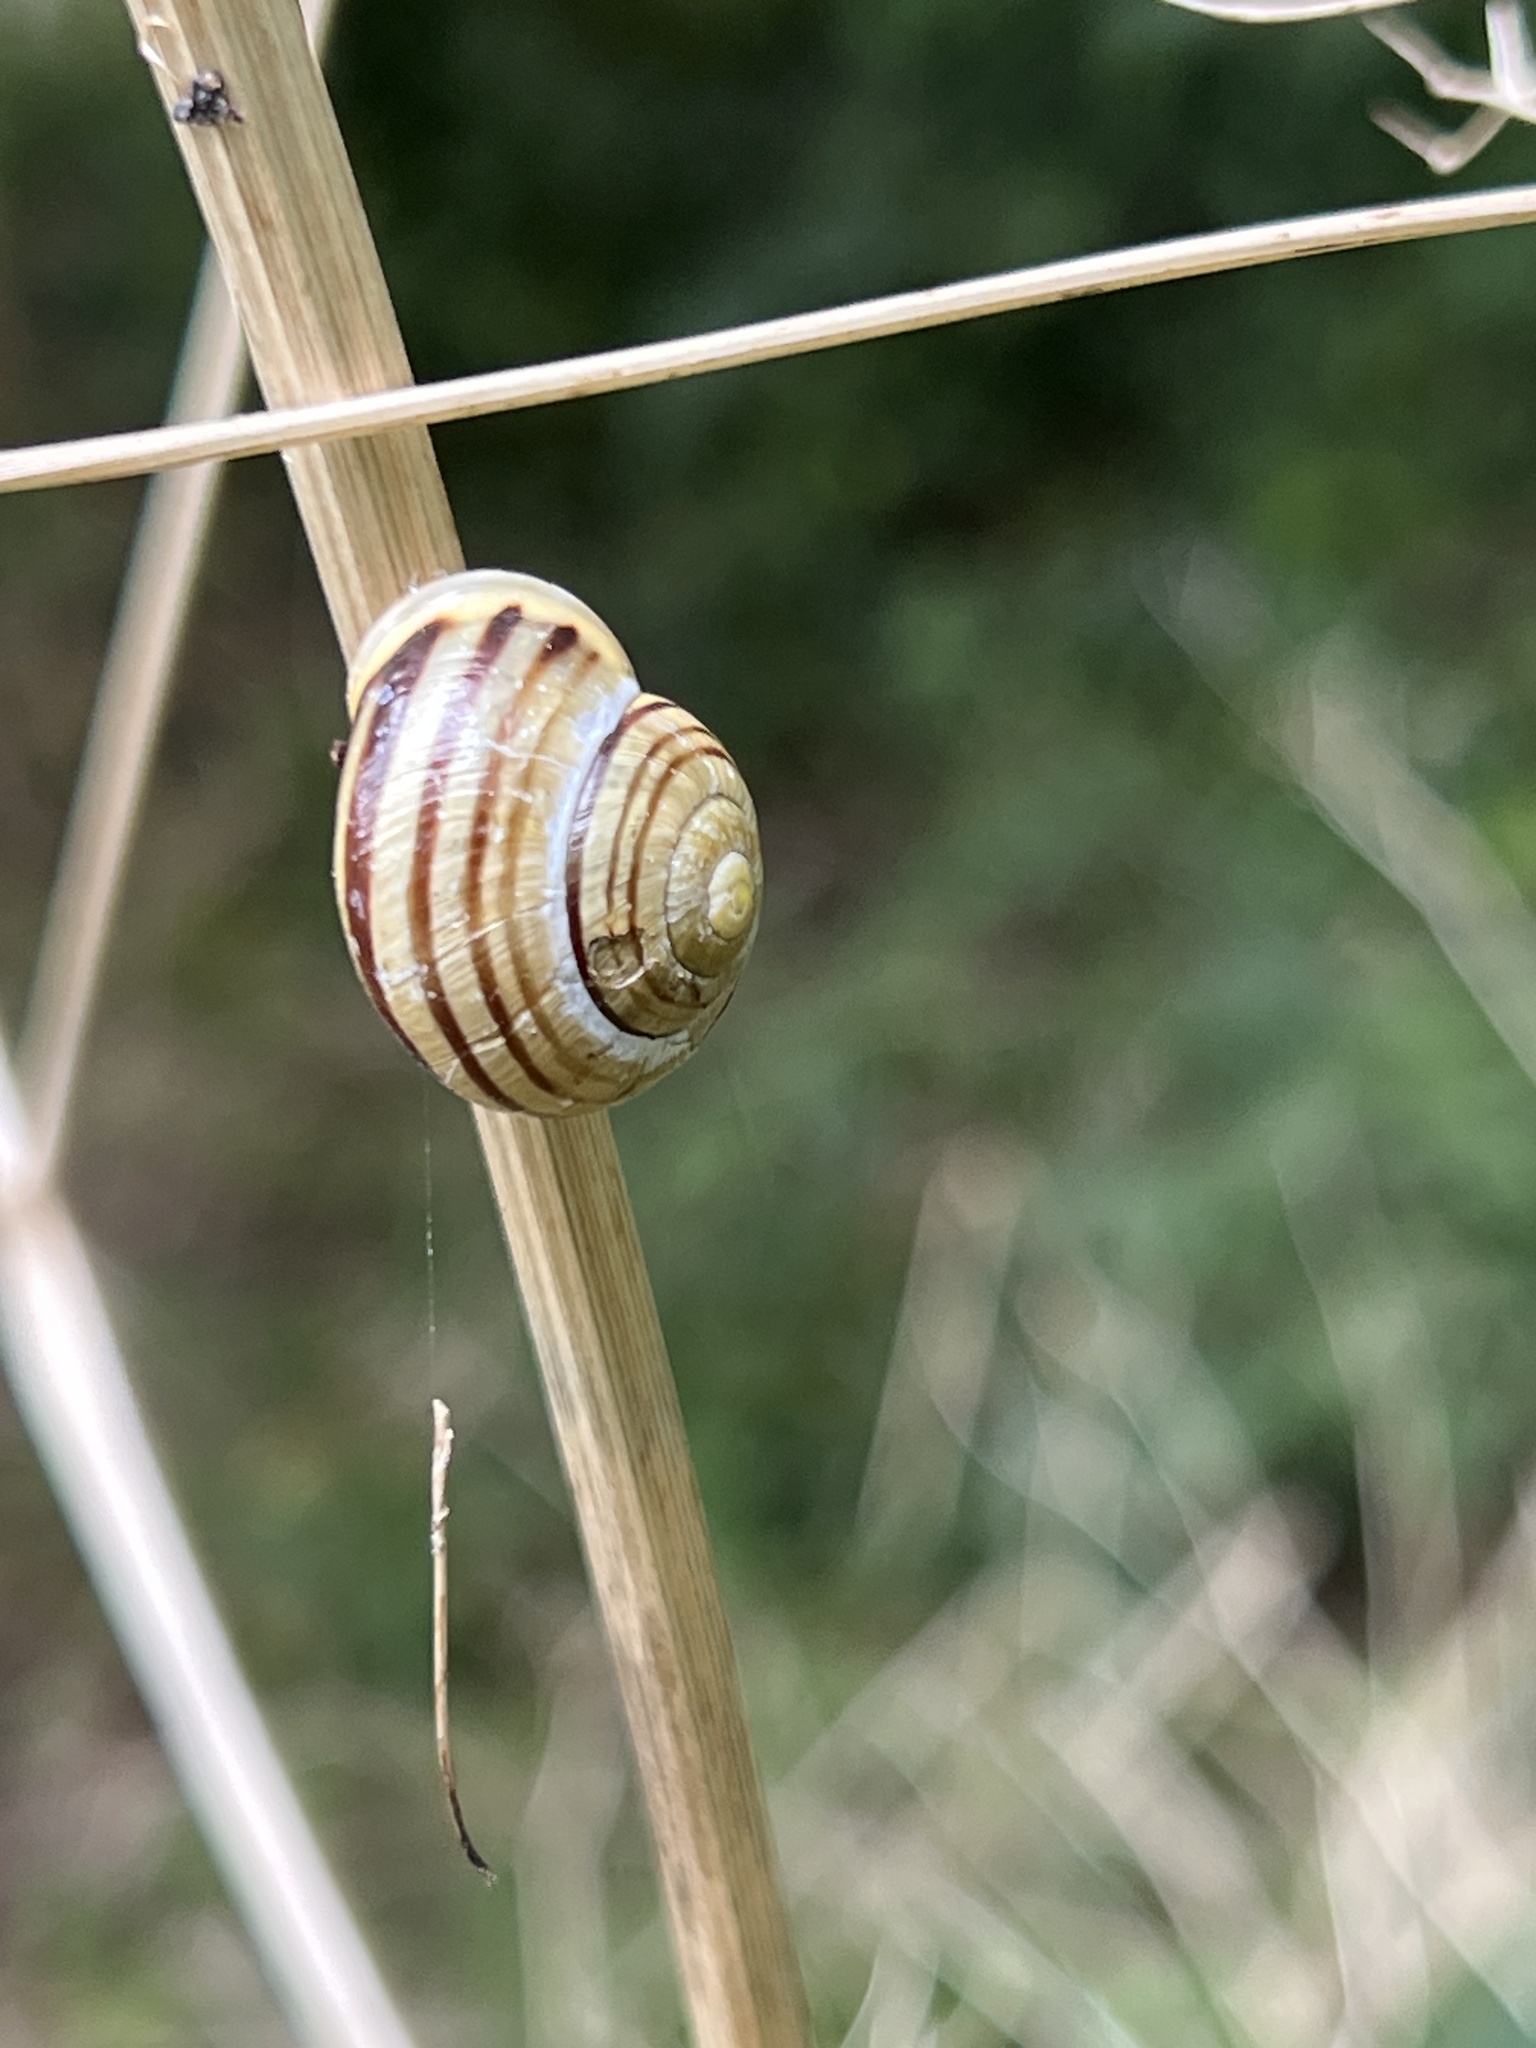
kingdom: Animalia
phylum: Mollusca
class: Gastropoda
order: Stylommatophora
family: Helicidae
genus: Cepaea
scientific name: Cepaea hortensis
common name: White-lip gardensnail
